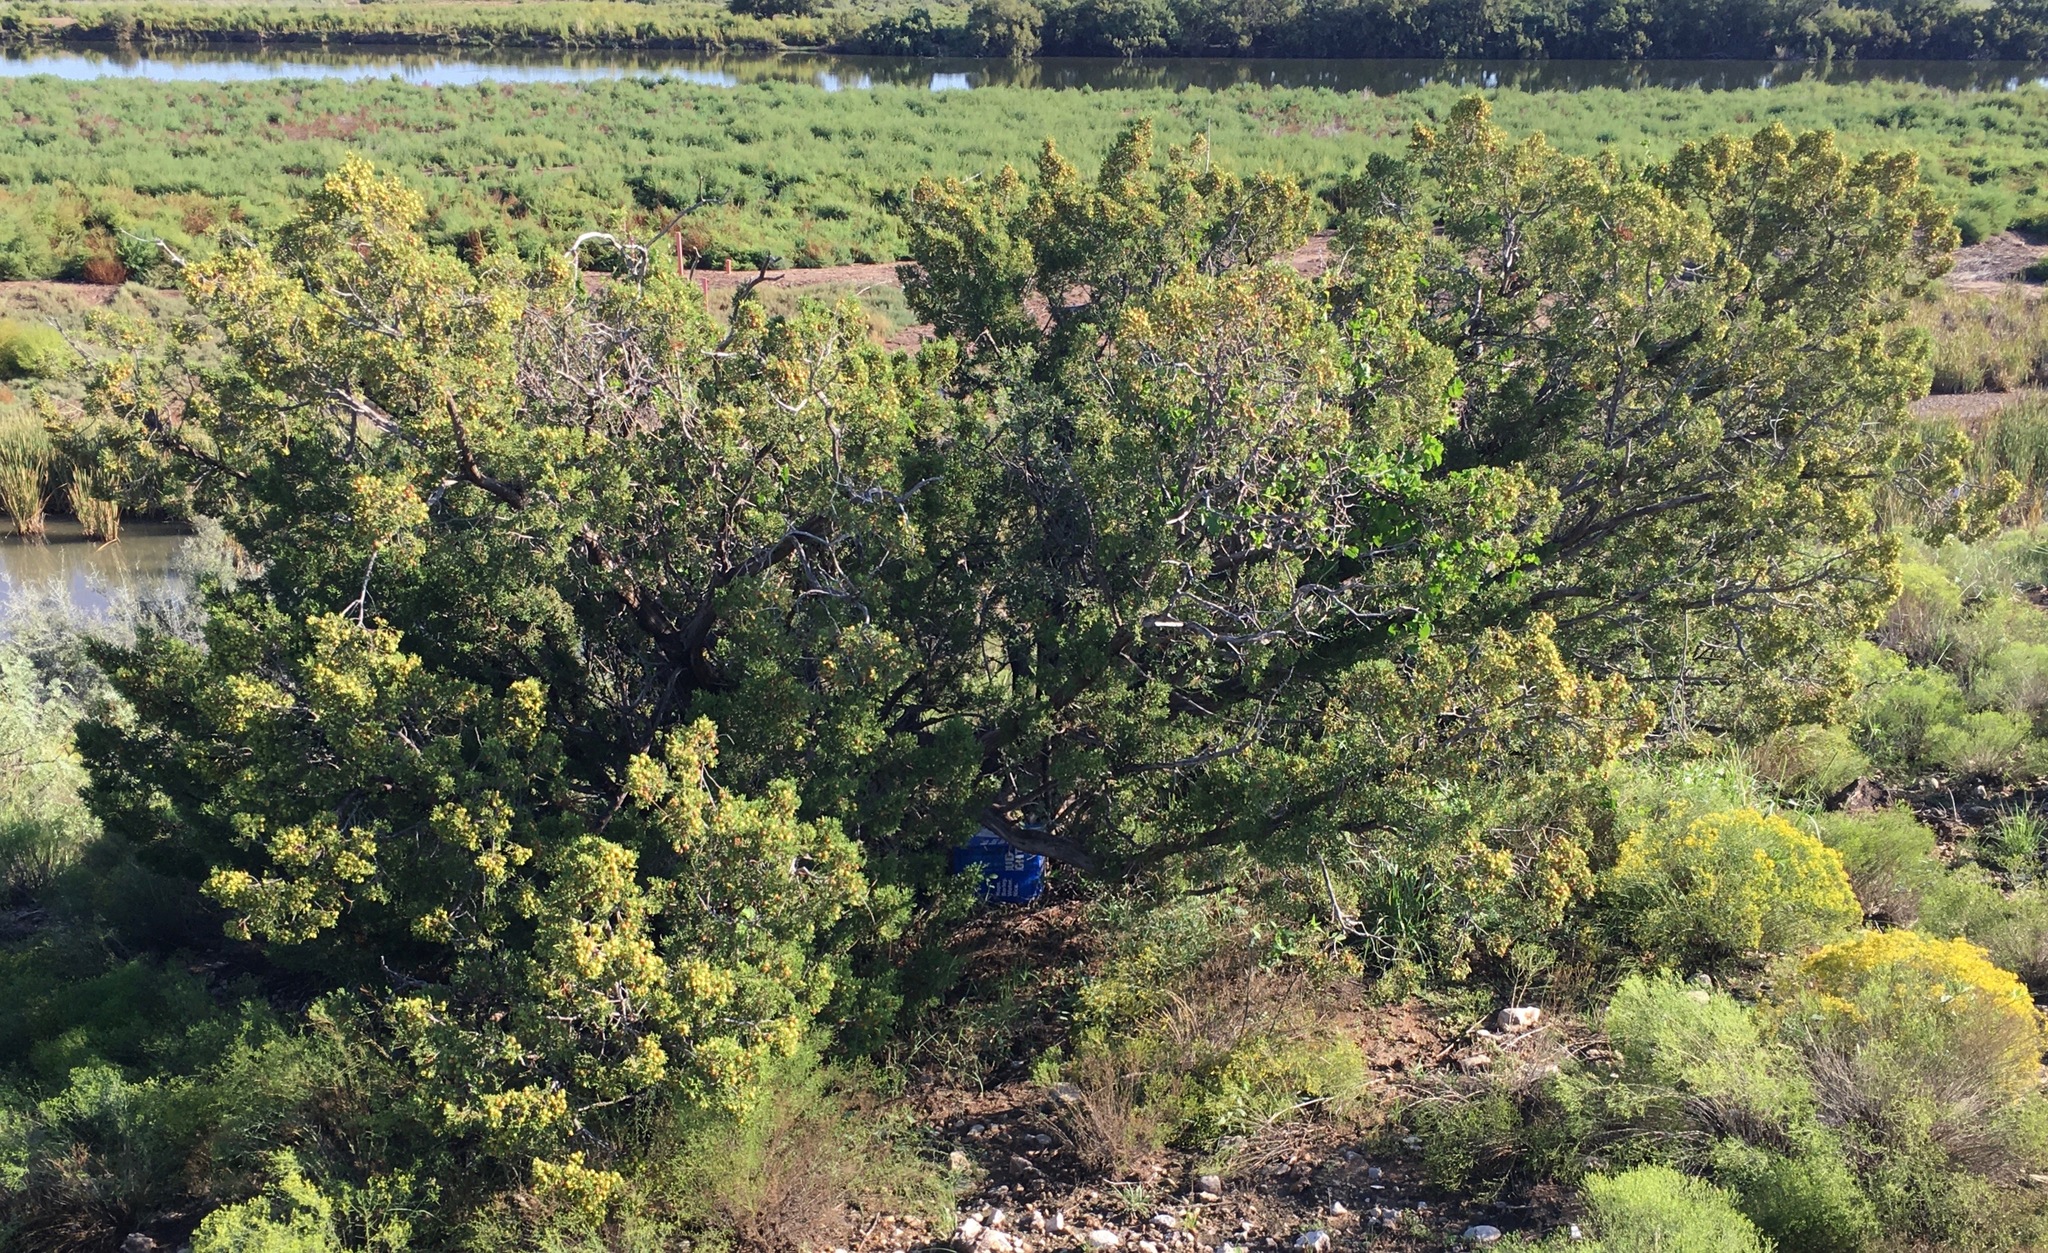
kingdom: Plantae
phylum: Tracheophyta
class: Pinopsida
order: Pinales
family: Cupressaceae
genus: Juniperus
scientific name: Juniperus pinchotii
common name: Pinchot juniper
